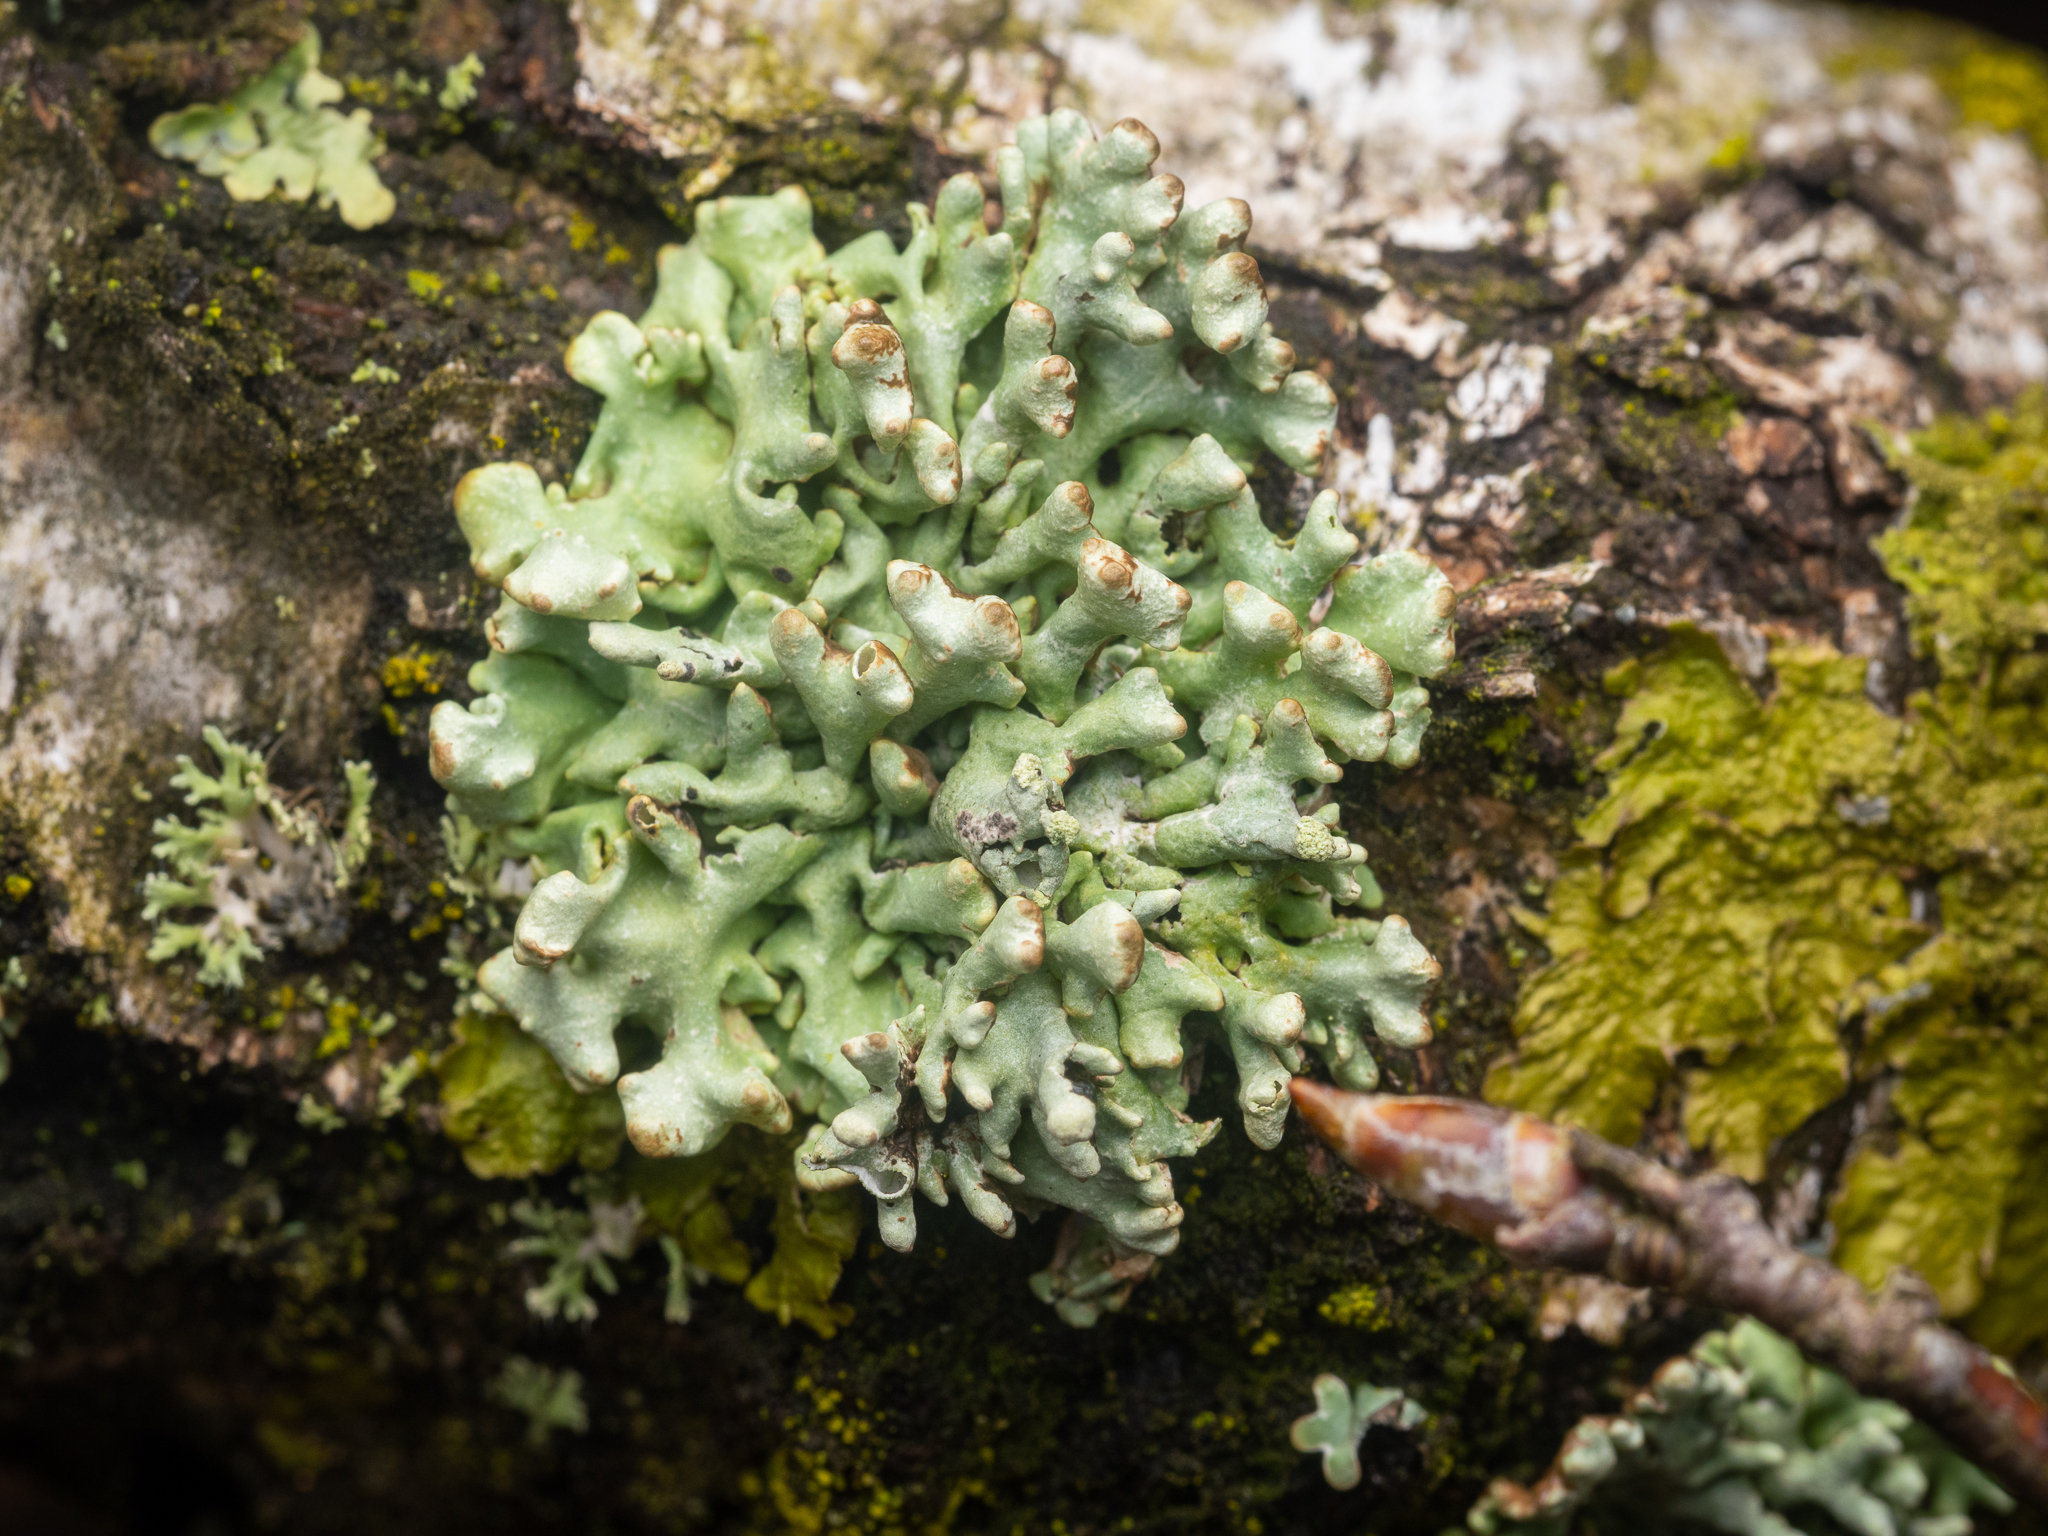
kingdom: Fungi
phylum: Ascomycota
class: Lecanoromycetes
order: Lecanorales
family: Parmeliaceae
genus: Hypogymnia
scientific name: Hypogymnia tubulosa
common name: Powder-headed tube lichen
